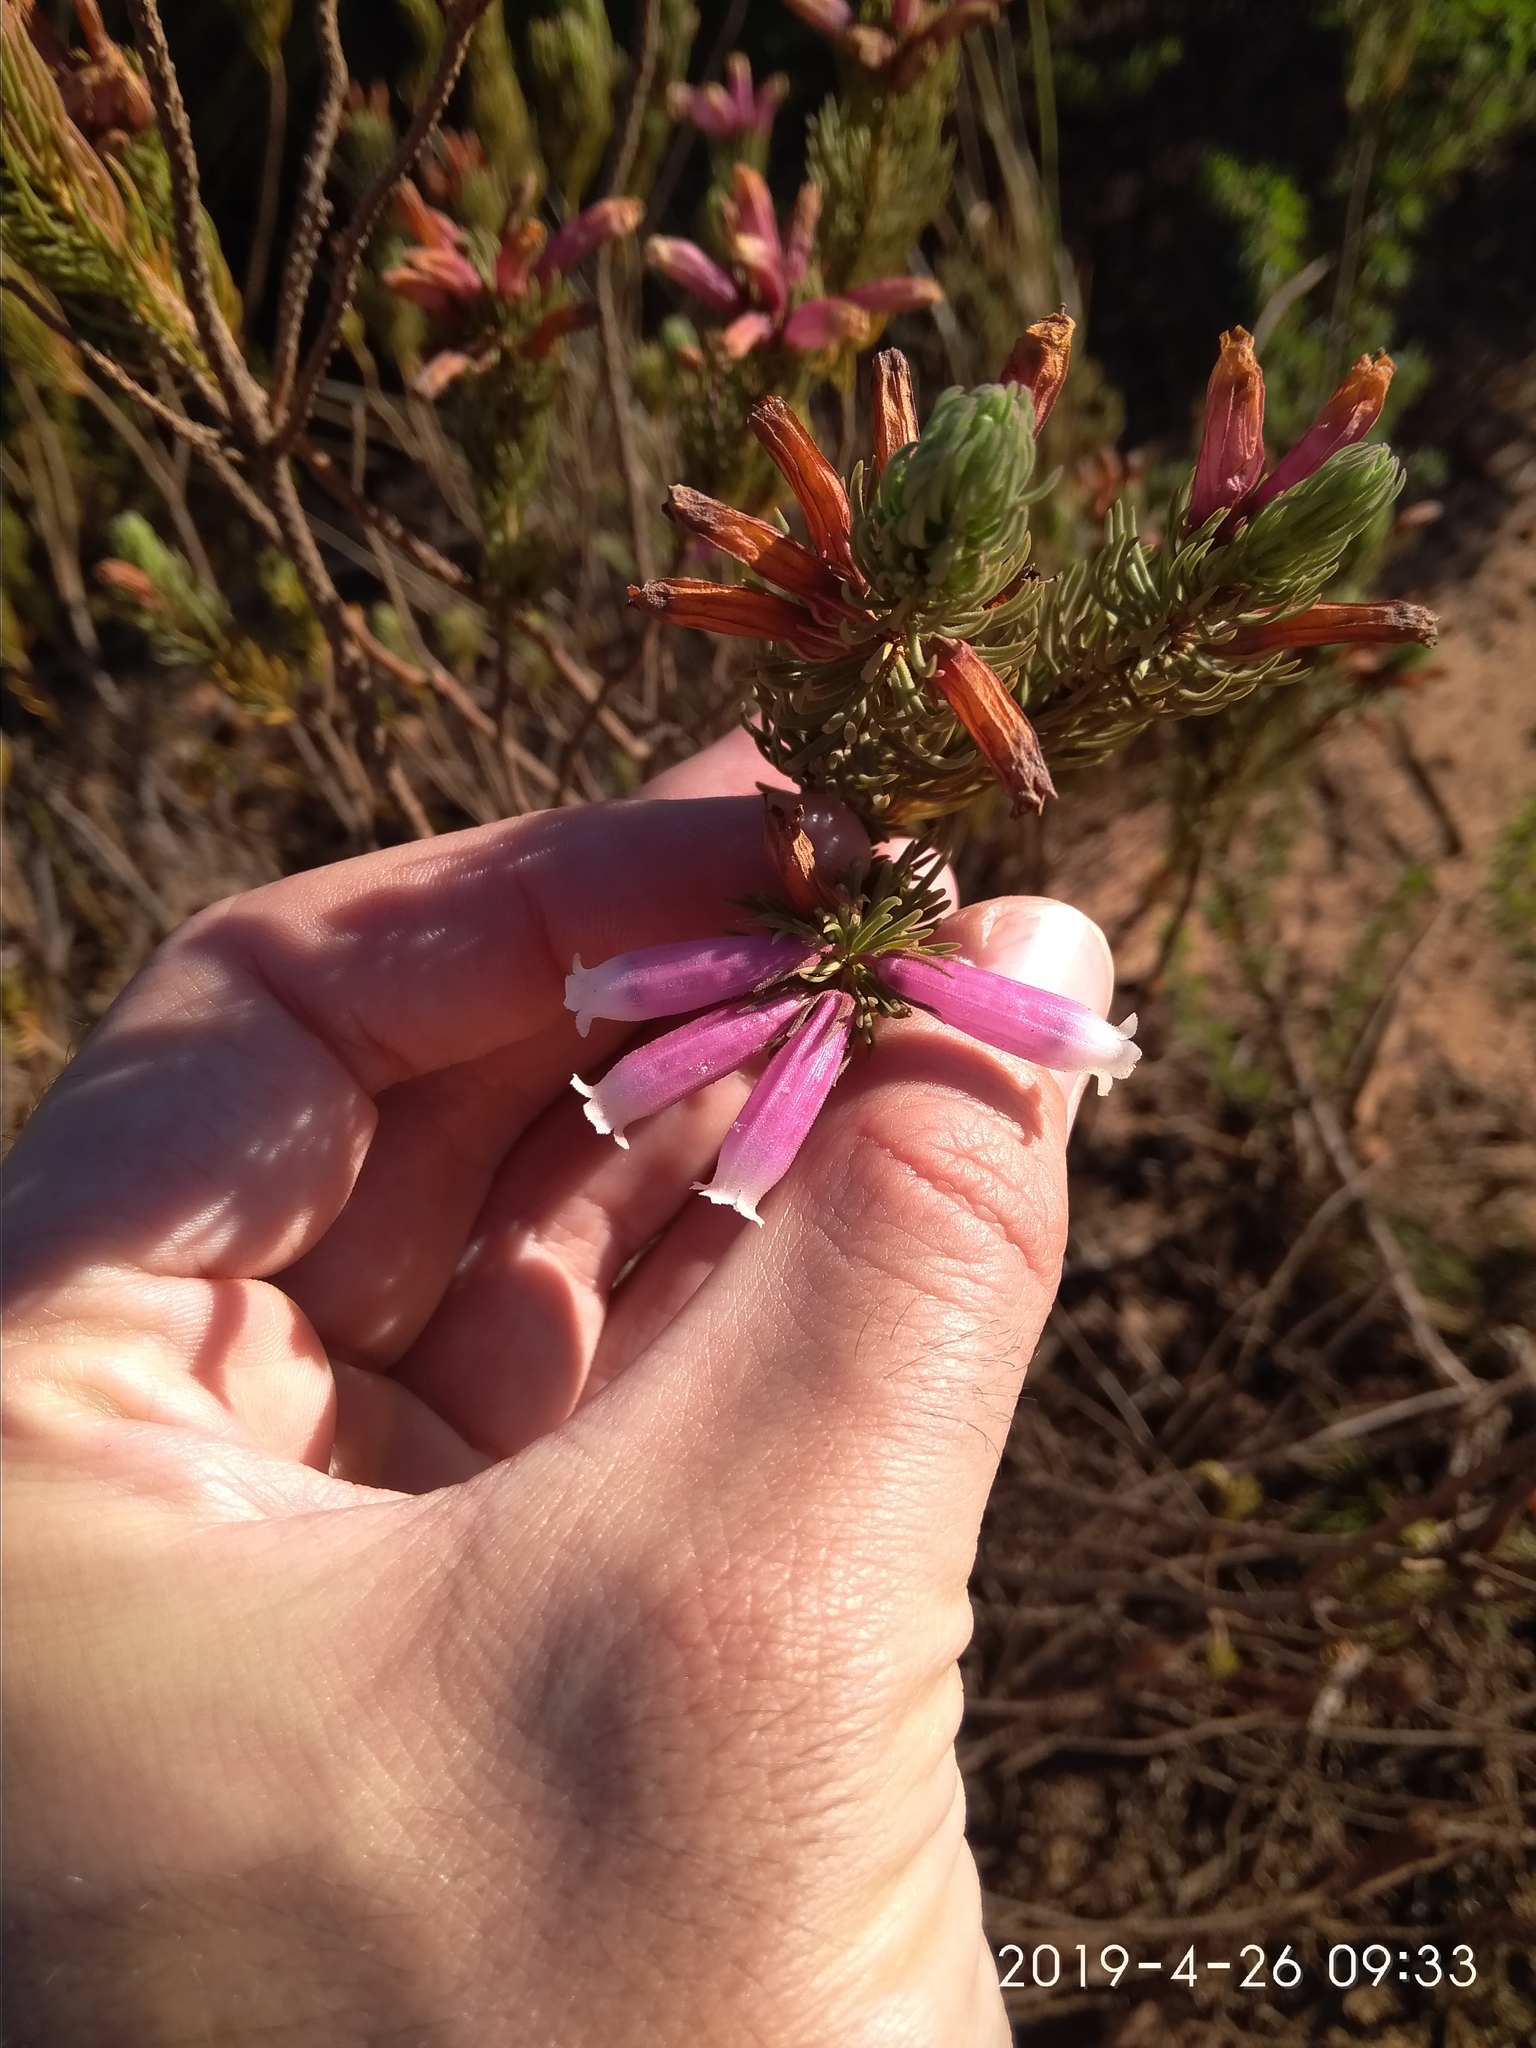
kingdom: Plantae
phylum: Tracheophyta
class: Magnoliopsida
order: Ericales
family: Ericaceae
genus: Erica
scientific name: Erica viscaria
